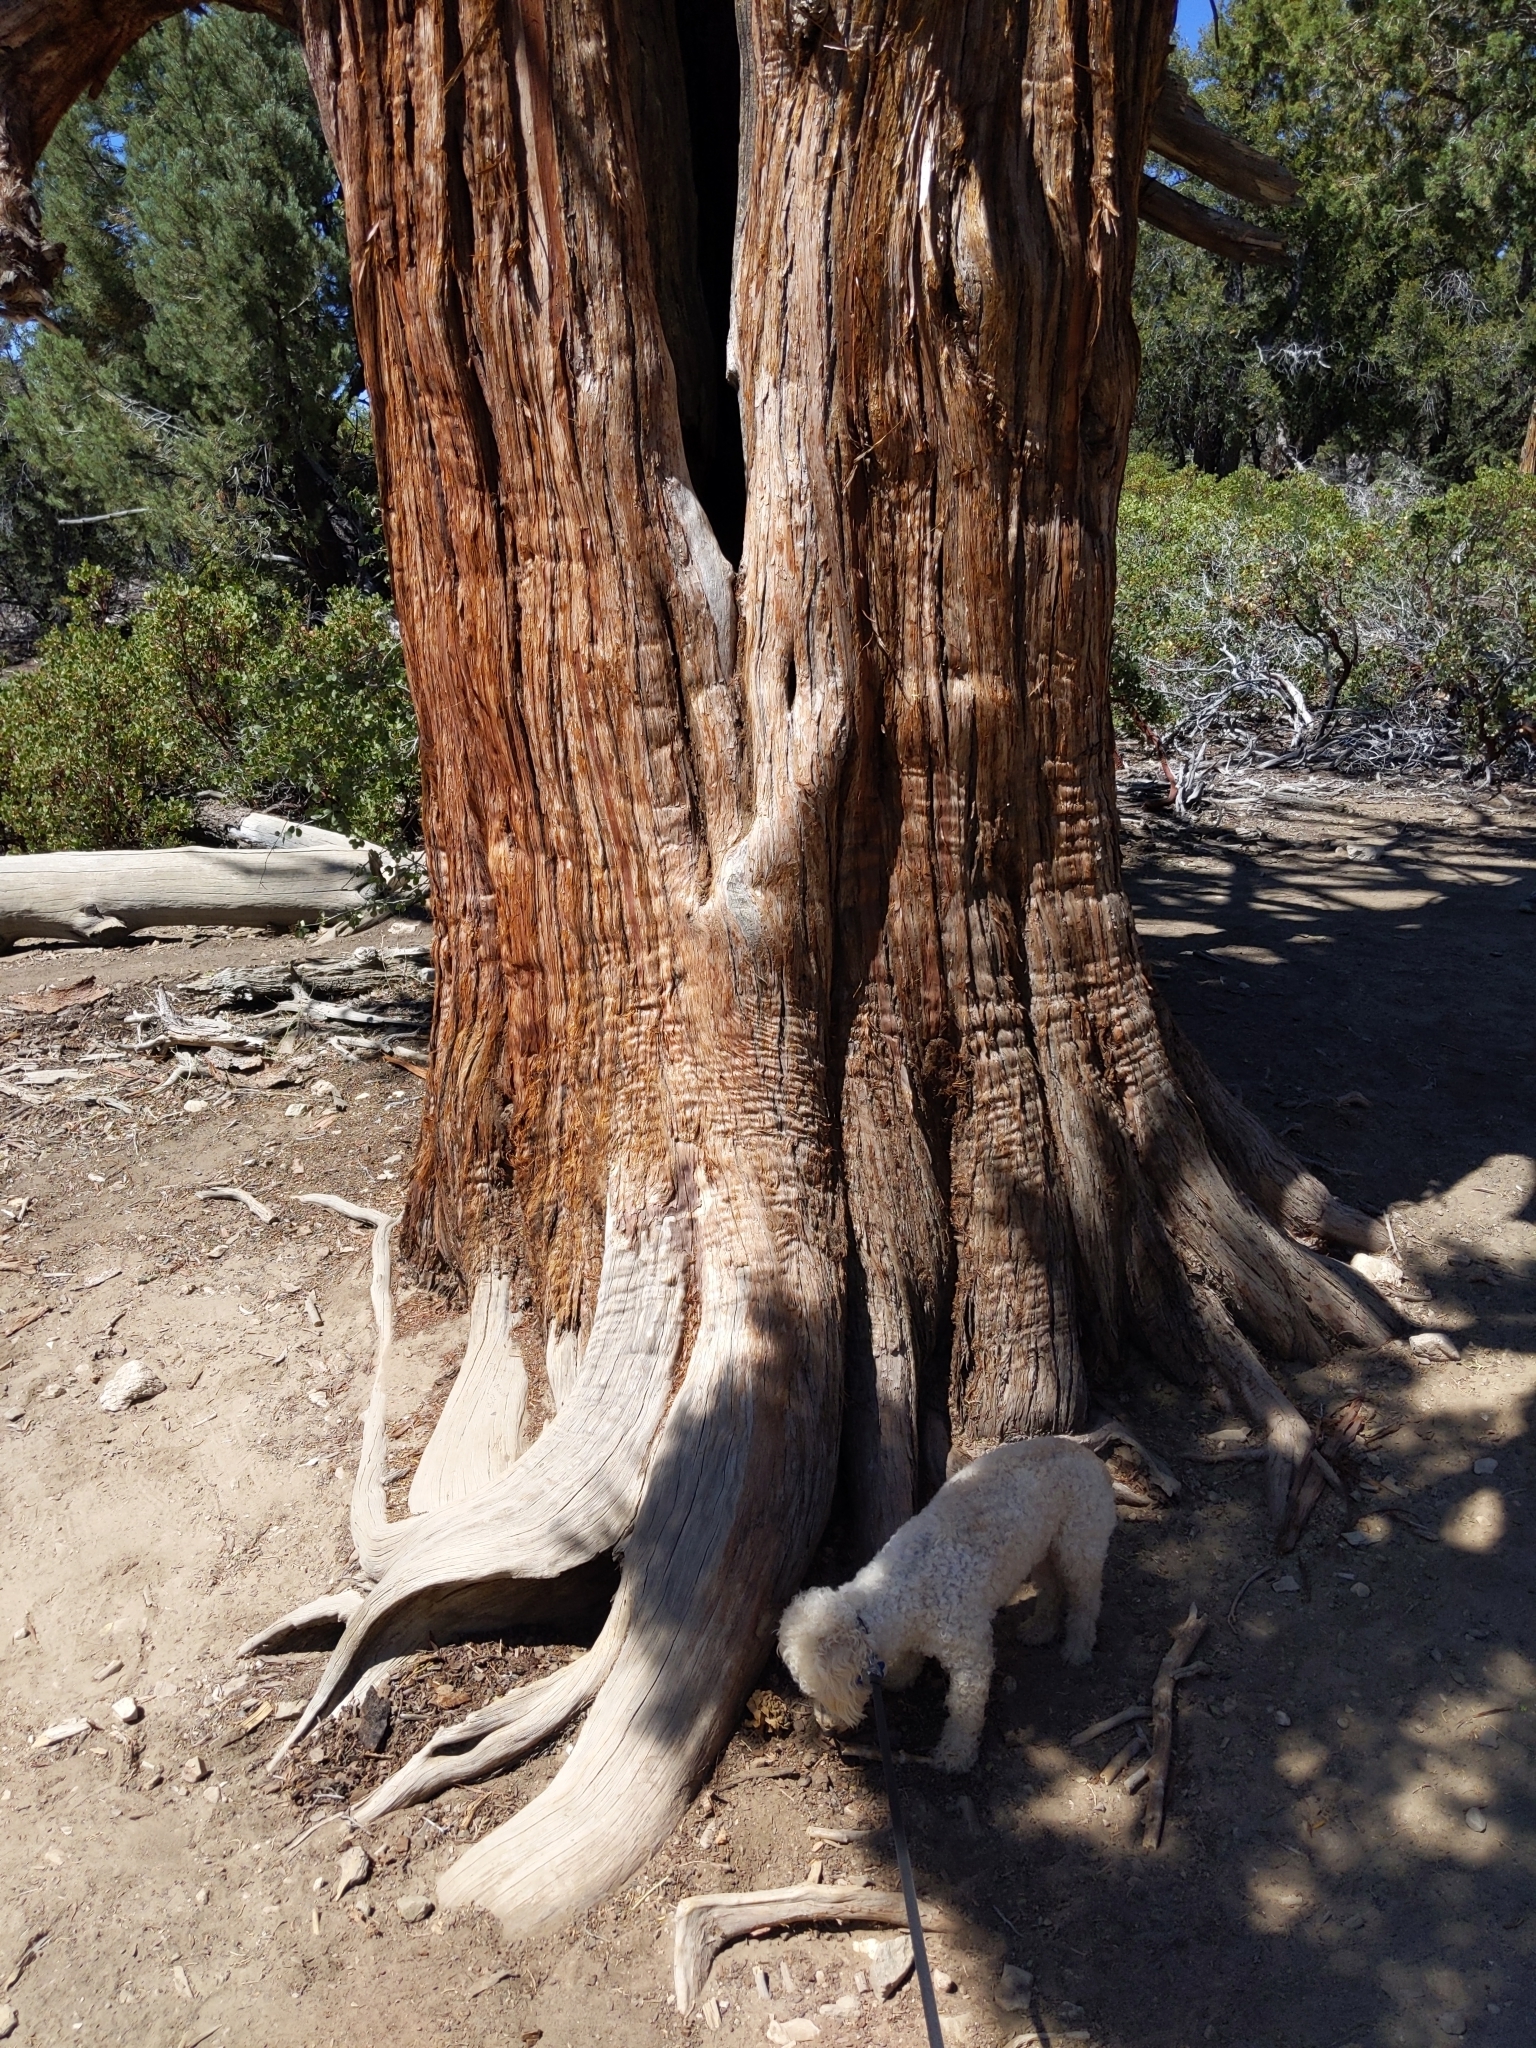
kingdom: Plantae
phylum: Tracheophyta
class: Pinopsida
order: Pinales
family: Cupressaceae
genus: Juniperus
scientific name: Juniperus occidentalis
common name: Western juniper
